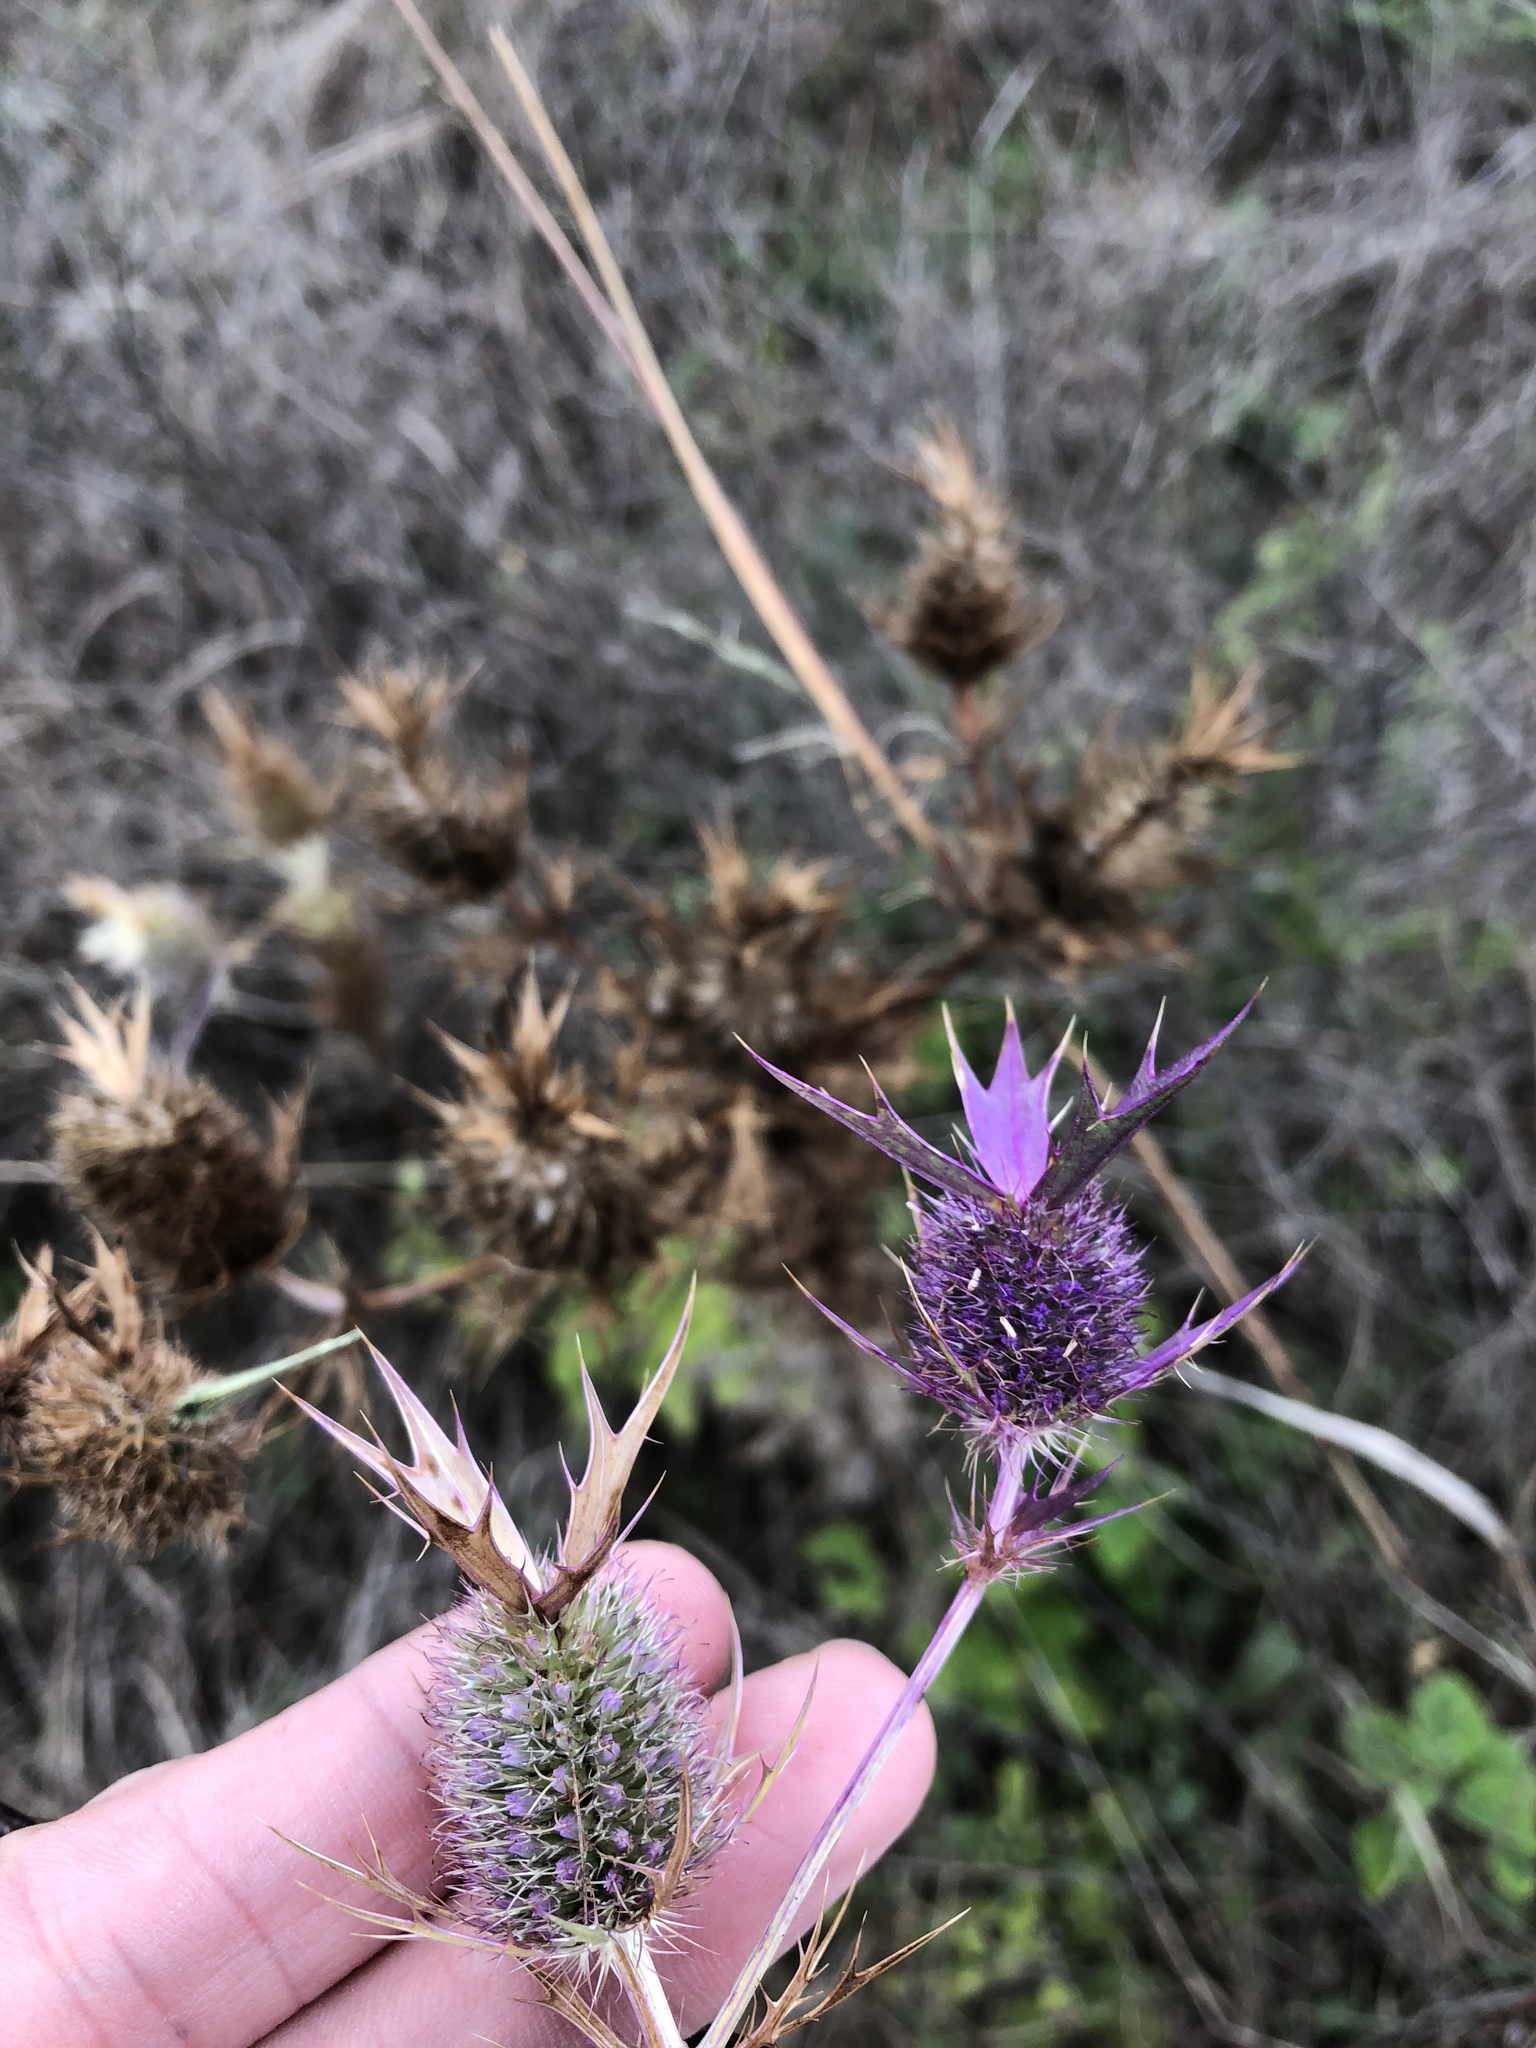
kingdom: Plantae
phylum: Tracheophyta
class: Magnoliopsida
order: Apiales
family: Apiaceae
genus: Eryngium
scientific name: Eryngium leavenworthii
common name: Leavenworth's eryngo
